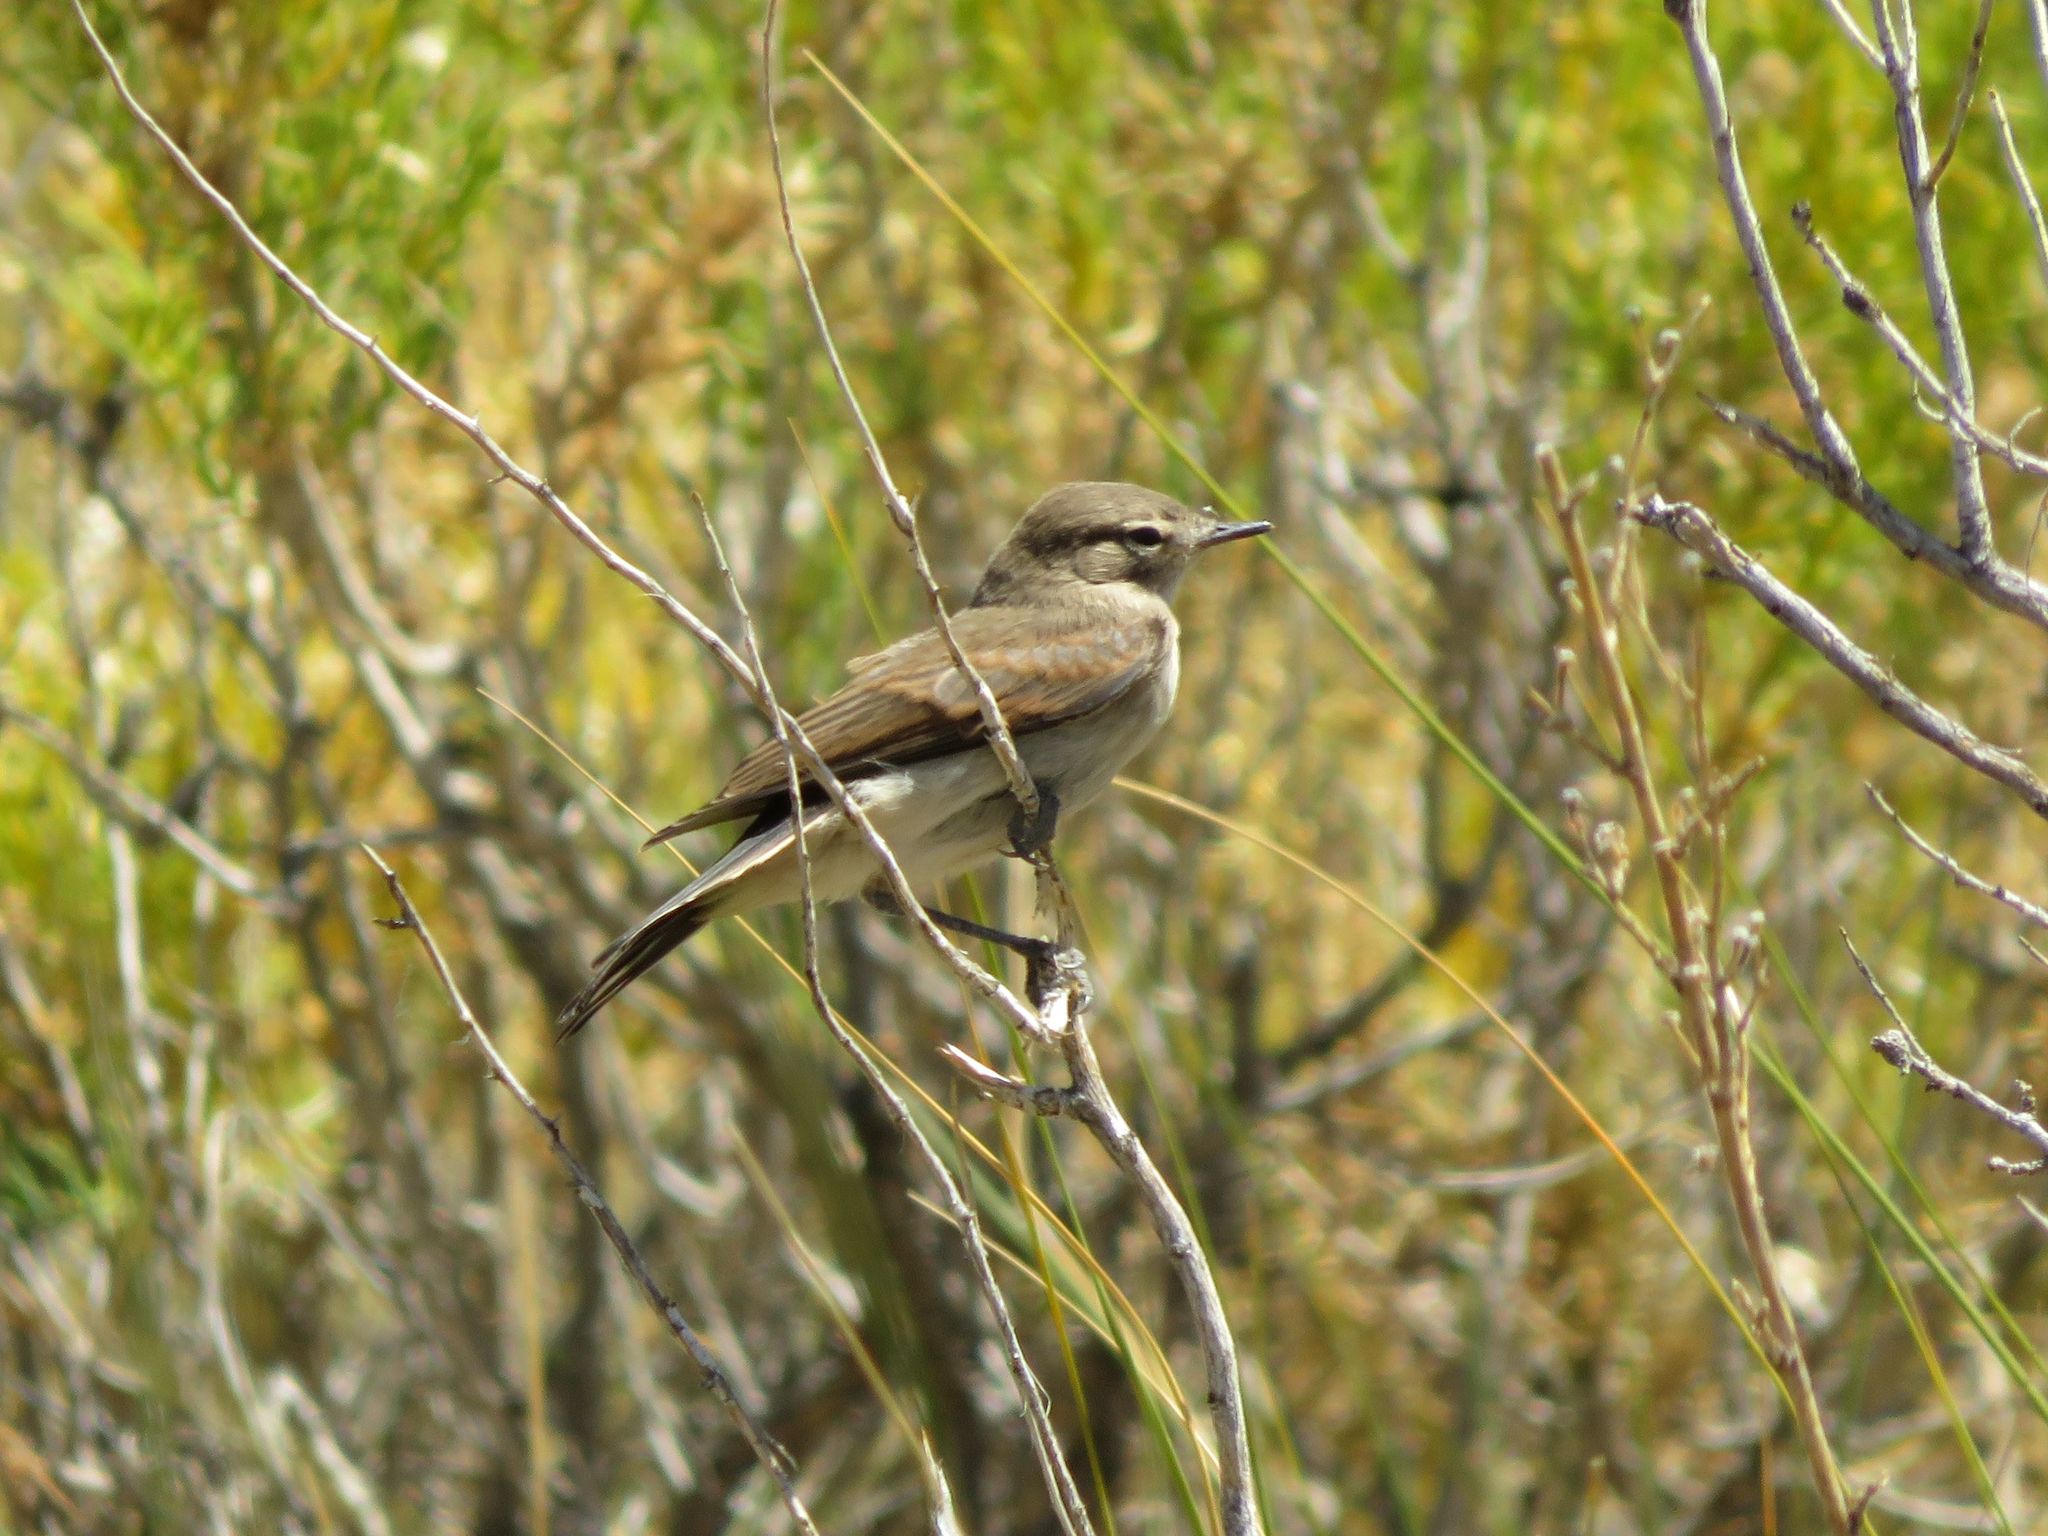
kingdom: Animalia
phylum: Chordata
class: Aves
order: Passeriformes
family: Tyrannidae
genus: Muscisaxicola
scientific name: Muscisaxicola maculirostris
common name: Spot-billed ground tyrant
